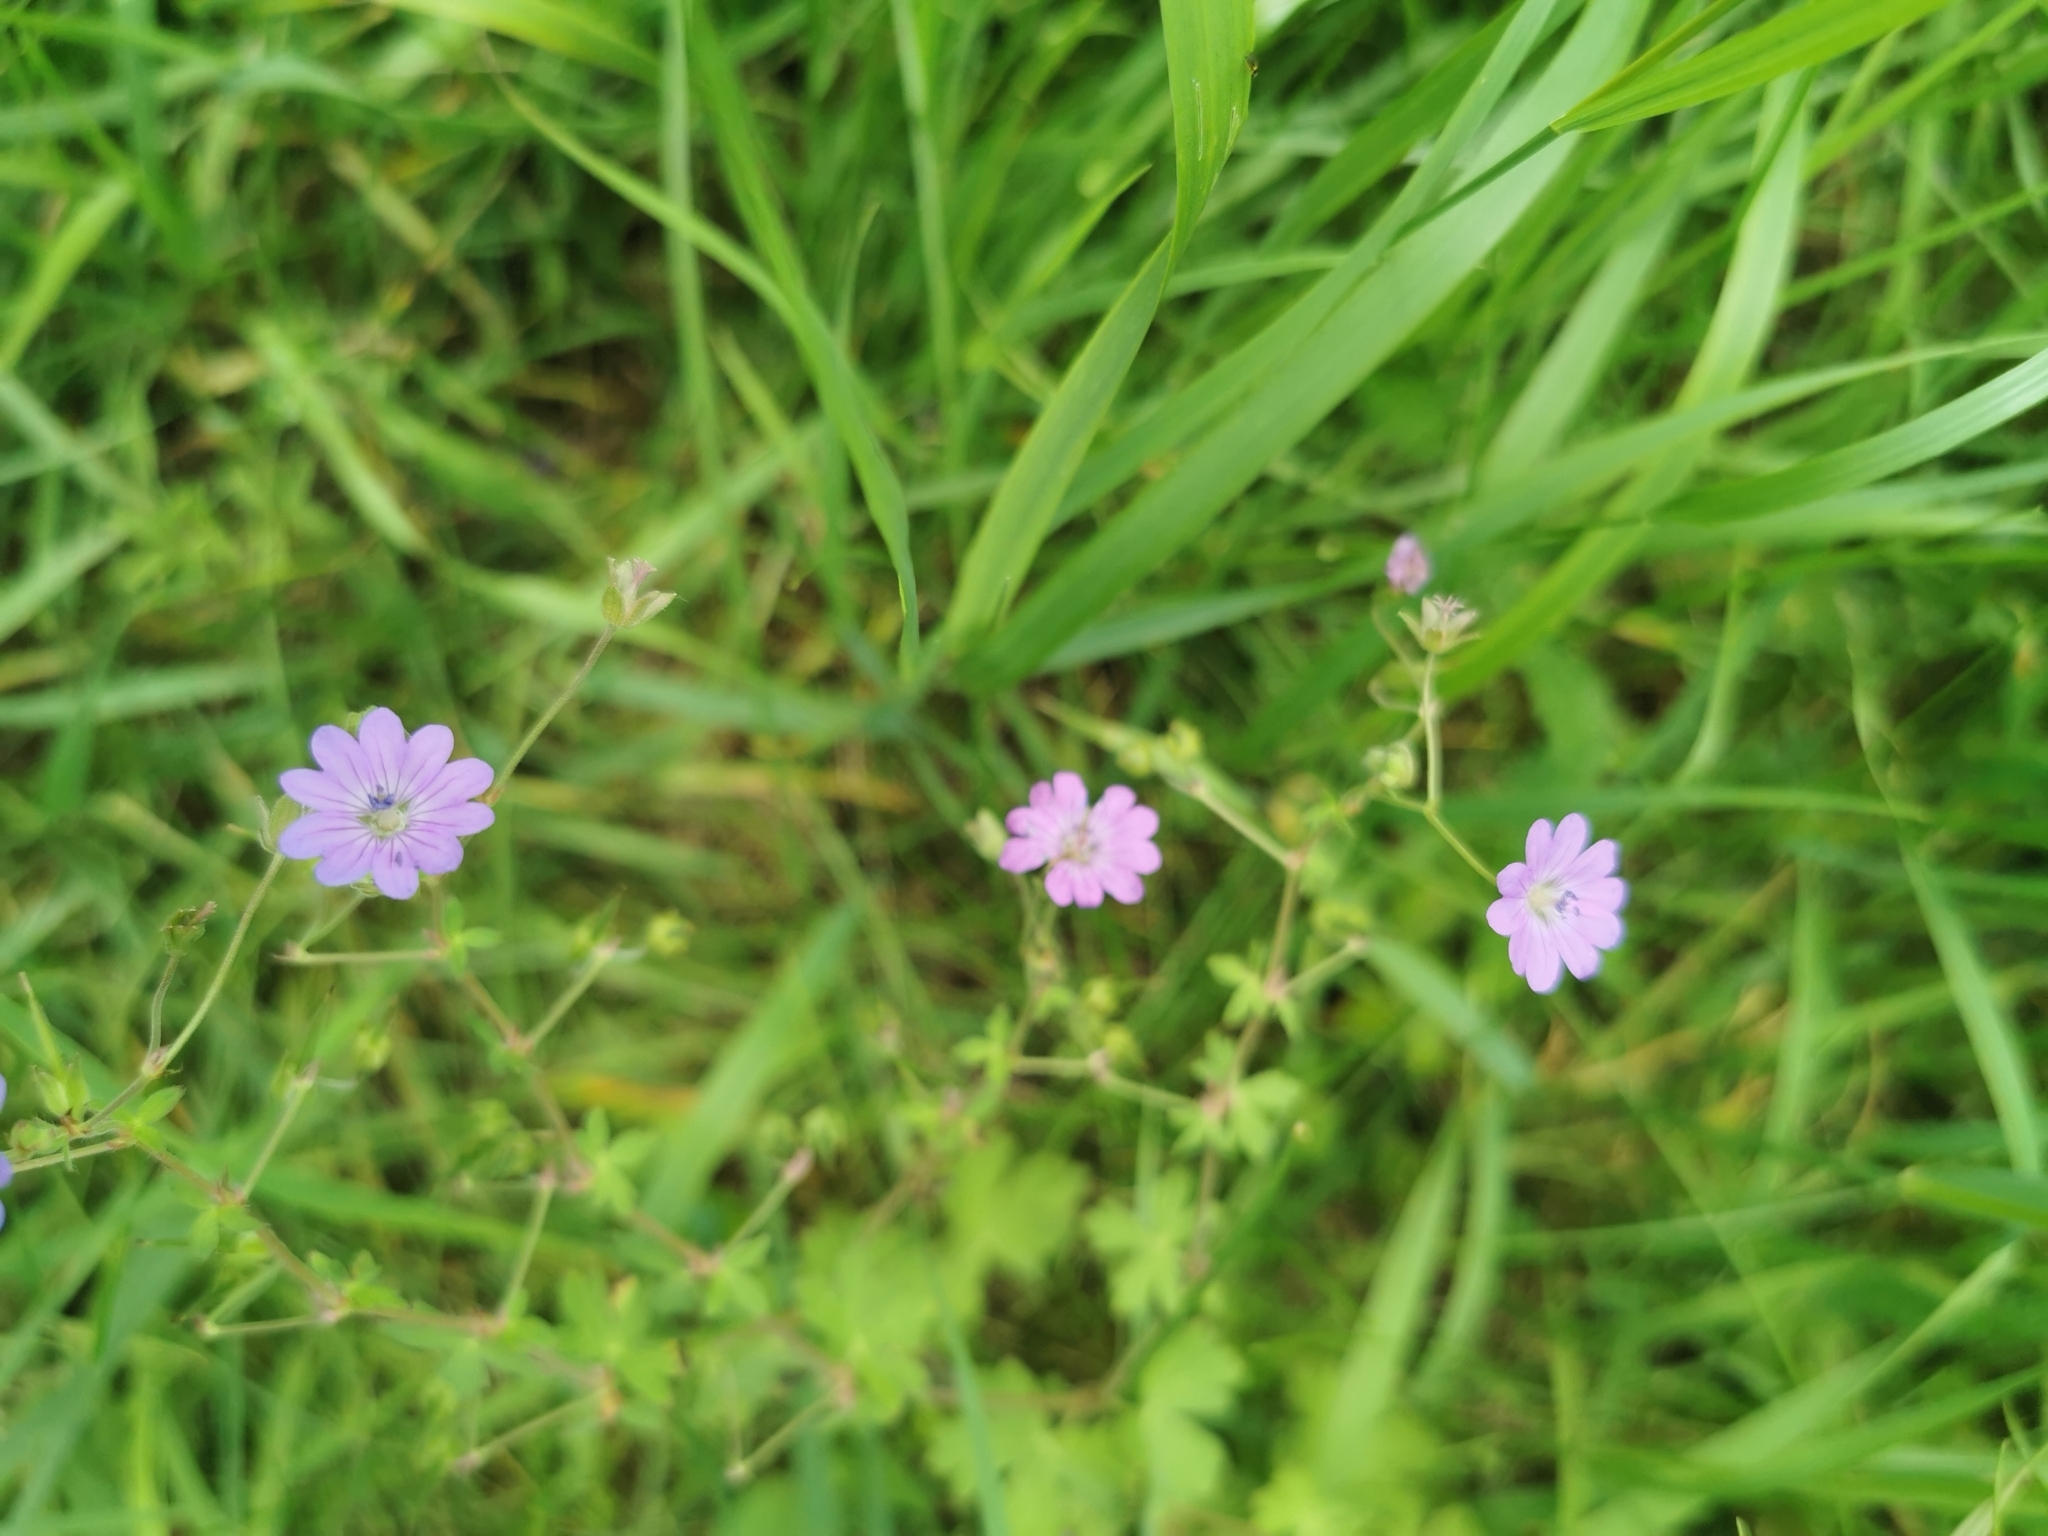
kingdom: Plantae
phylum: Tracheophyta
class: Magnoliopsida
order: Geraniales
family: Geraniaceae
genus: Geranium
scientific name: Geranium pyrenaicum
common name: Hedgerow crane's-bill
